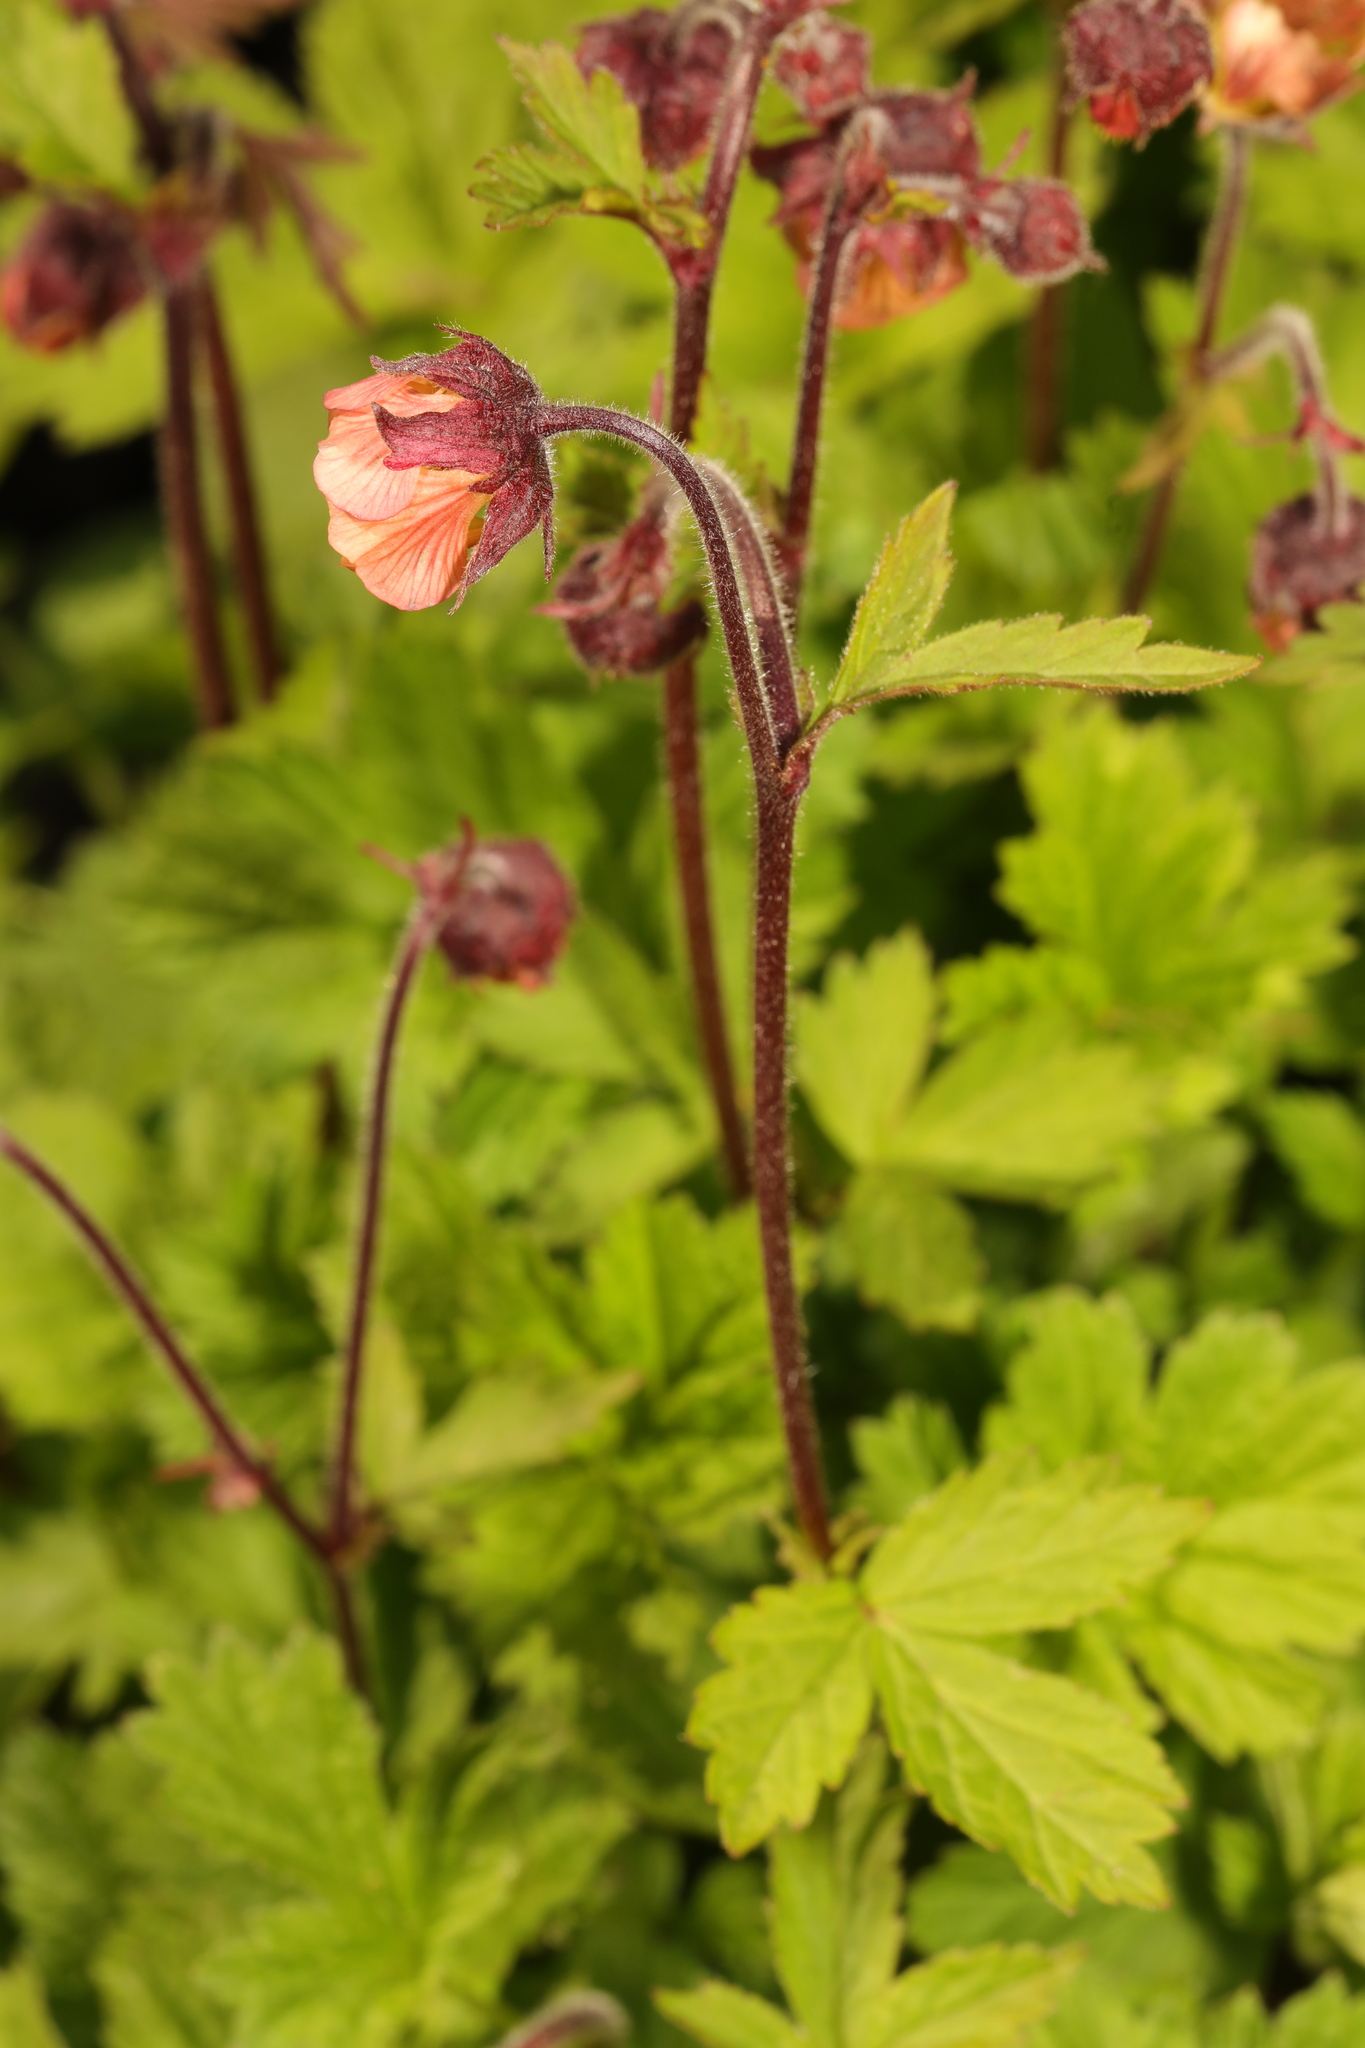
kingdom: Plantae
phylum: Tracheophyta
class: Magnoliopsida
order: Rosales
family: Rosaceae
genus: Geum
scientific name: Geum rivale
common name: Water avens
